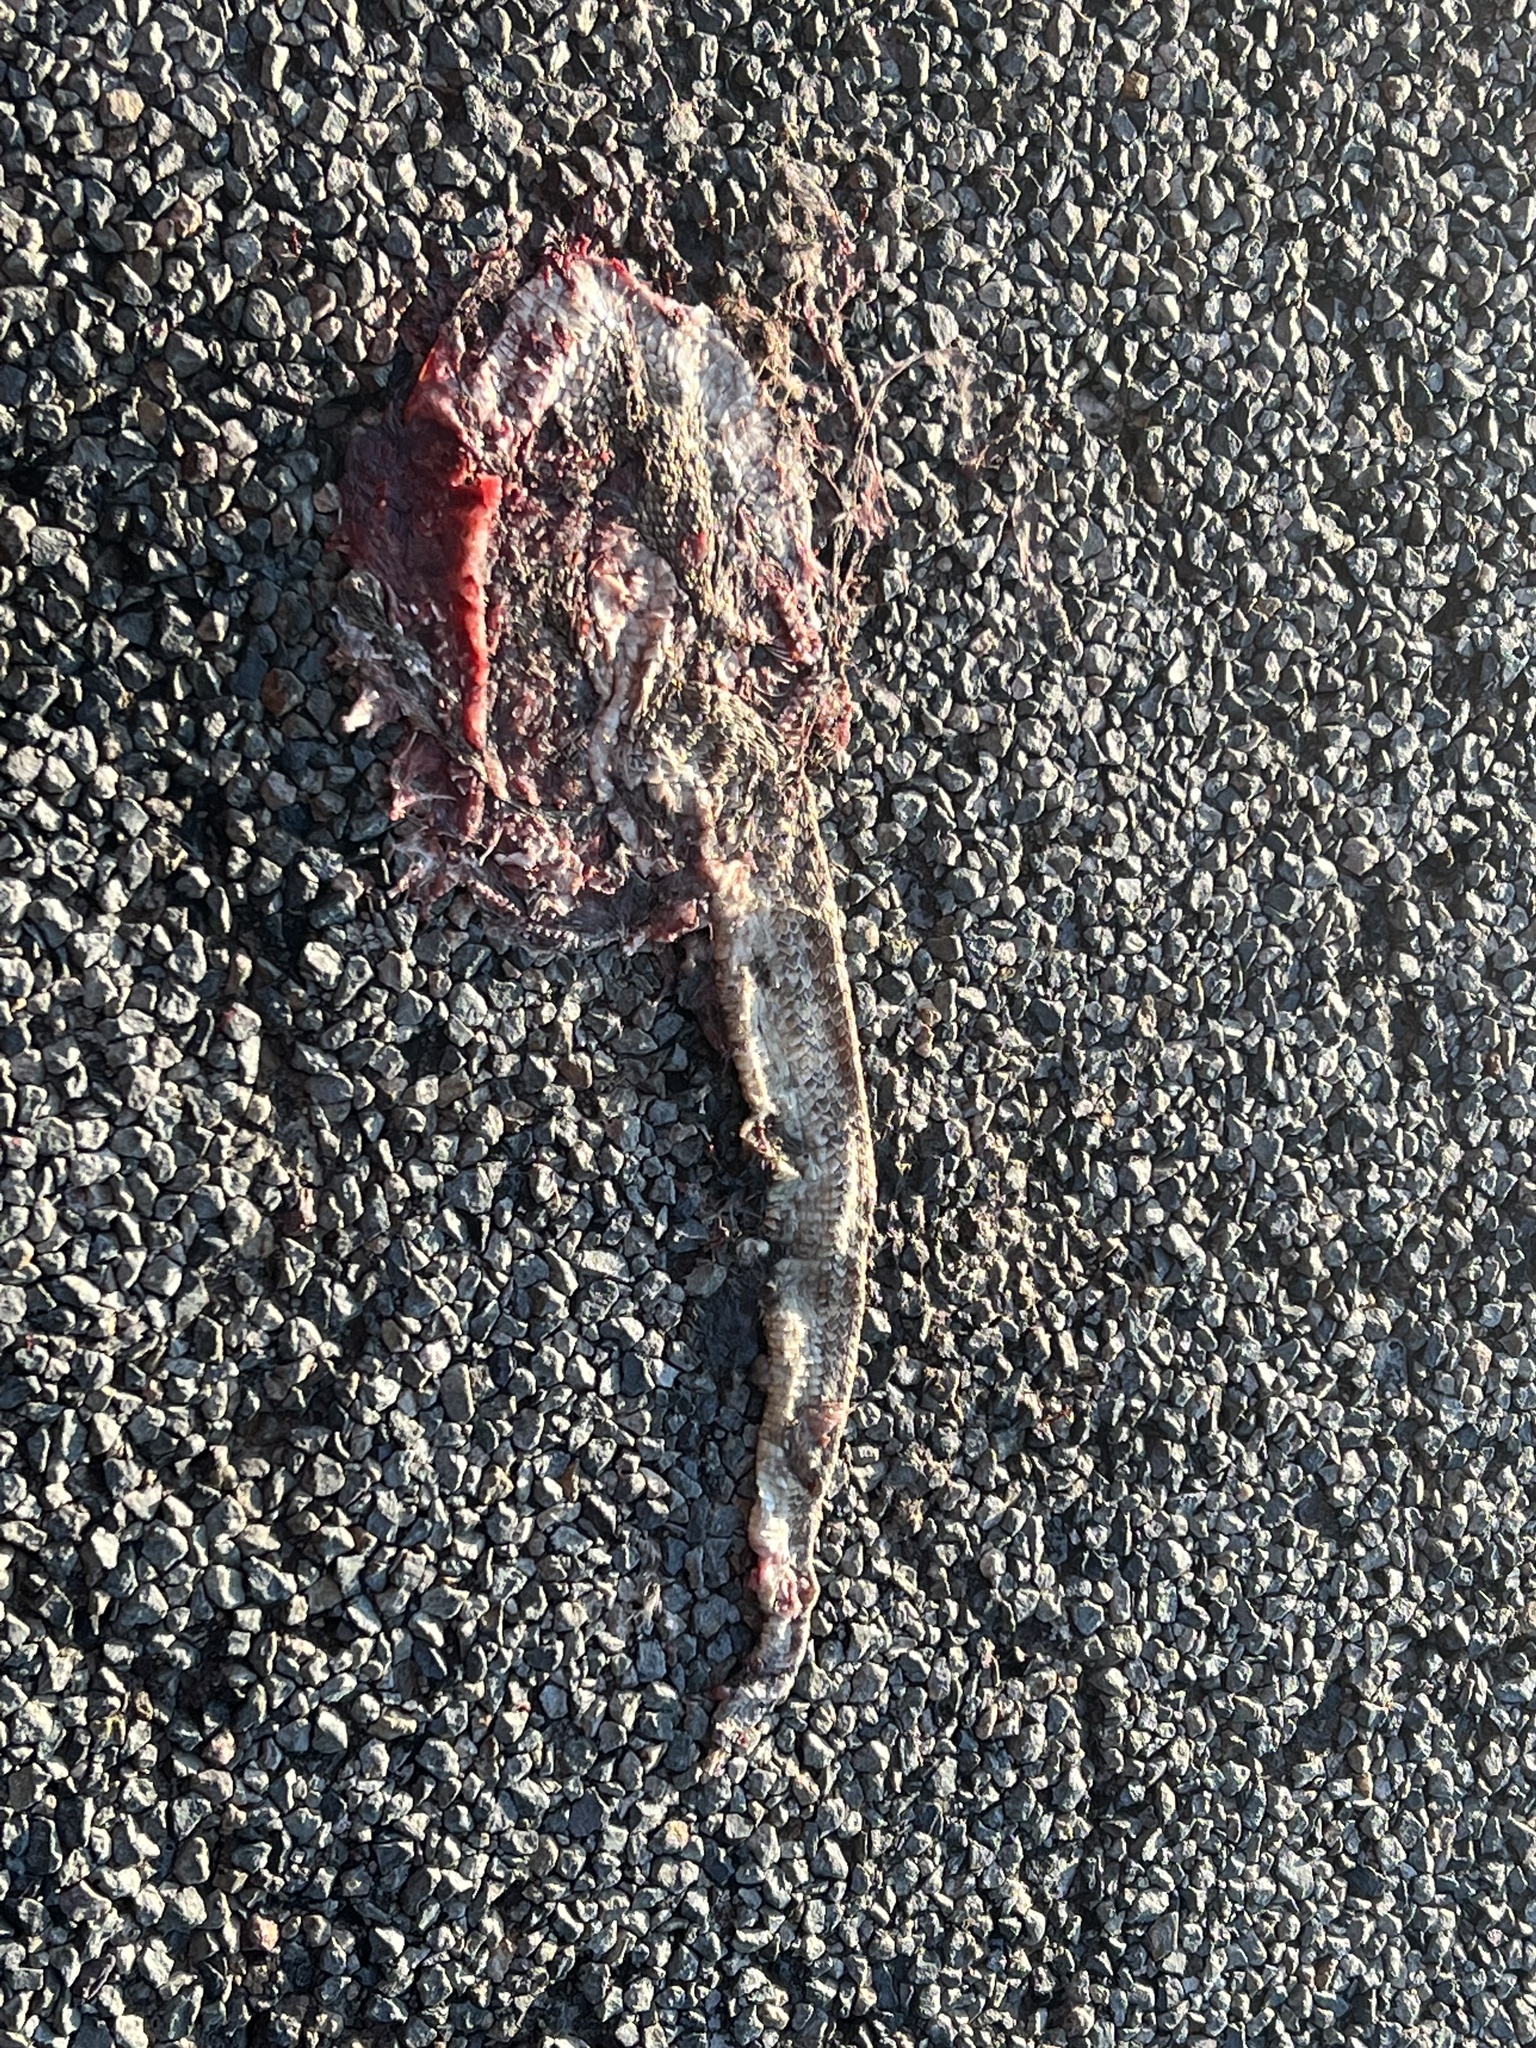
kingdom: Animalia
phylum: Chordata
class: Squamata
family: Viperidae
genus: Crotalus
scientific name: Crotalus atrox
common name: Western diamond-backed rattlesnake
